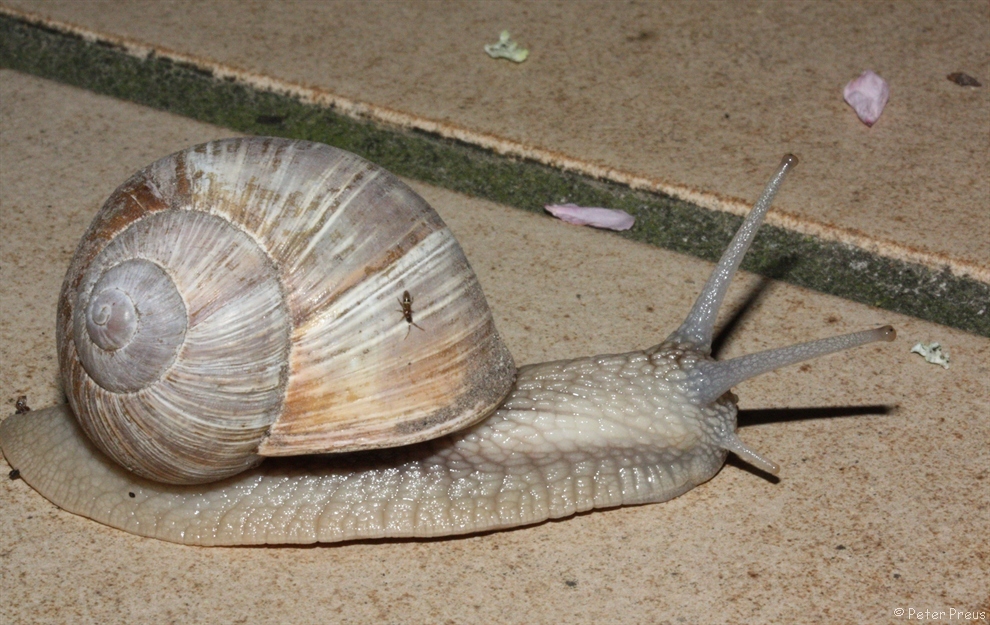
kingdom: Animalia
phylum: Mollusca
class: Gastropoda
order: Stylommatophora
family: Helicidae
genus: Helix
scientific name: Helix pomatia
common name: Roman snail
